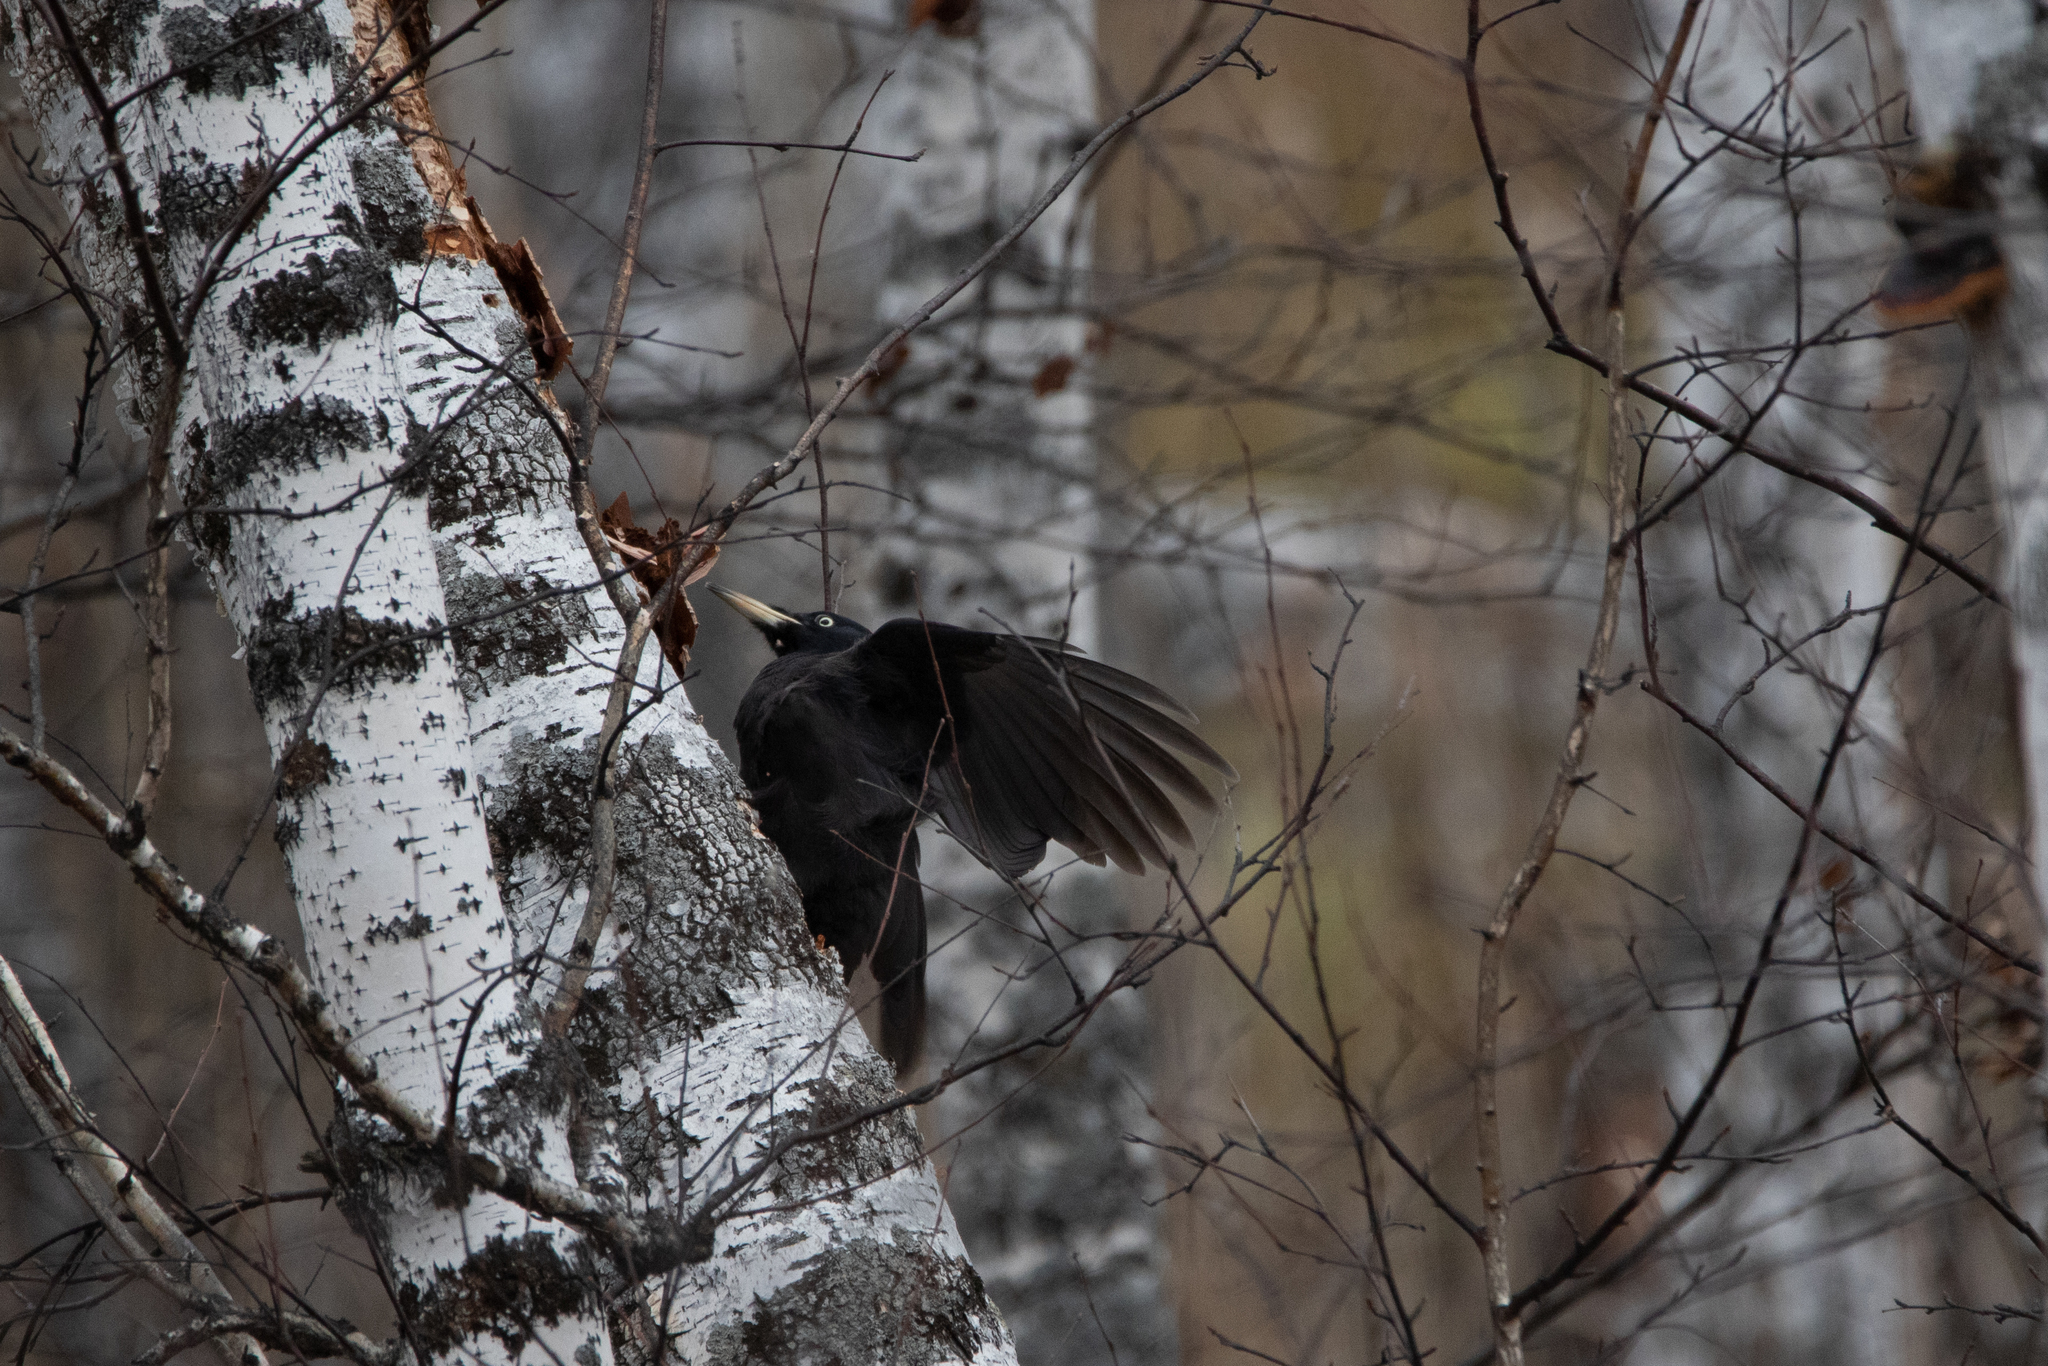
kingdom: Animalia
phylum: Chordata
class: Aves
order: Piciformes
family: Picidae
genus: Dryocopus
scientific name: Dryocopus martius
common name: Black woodpecker
